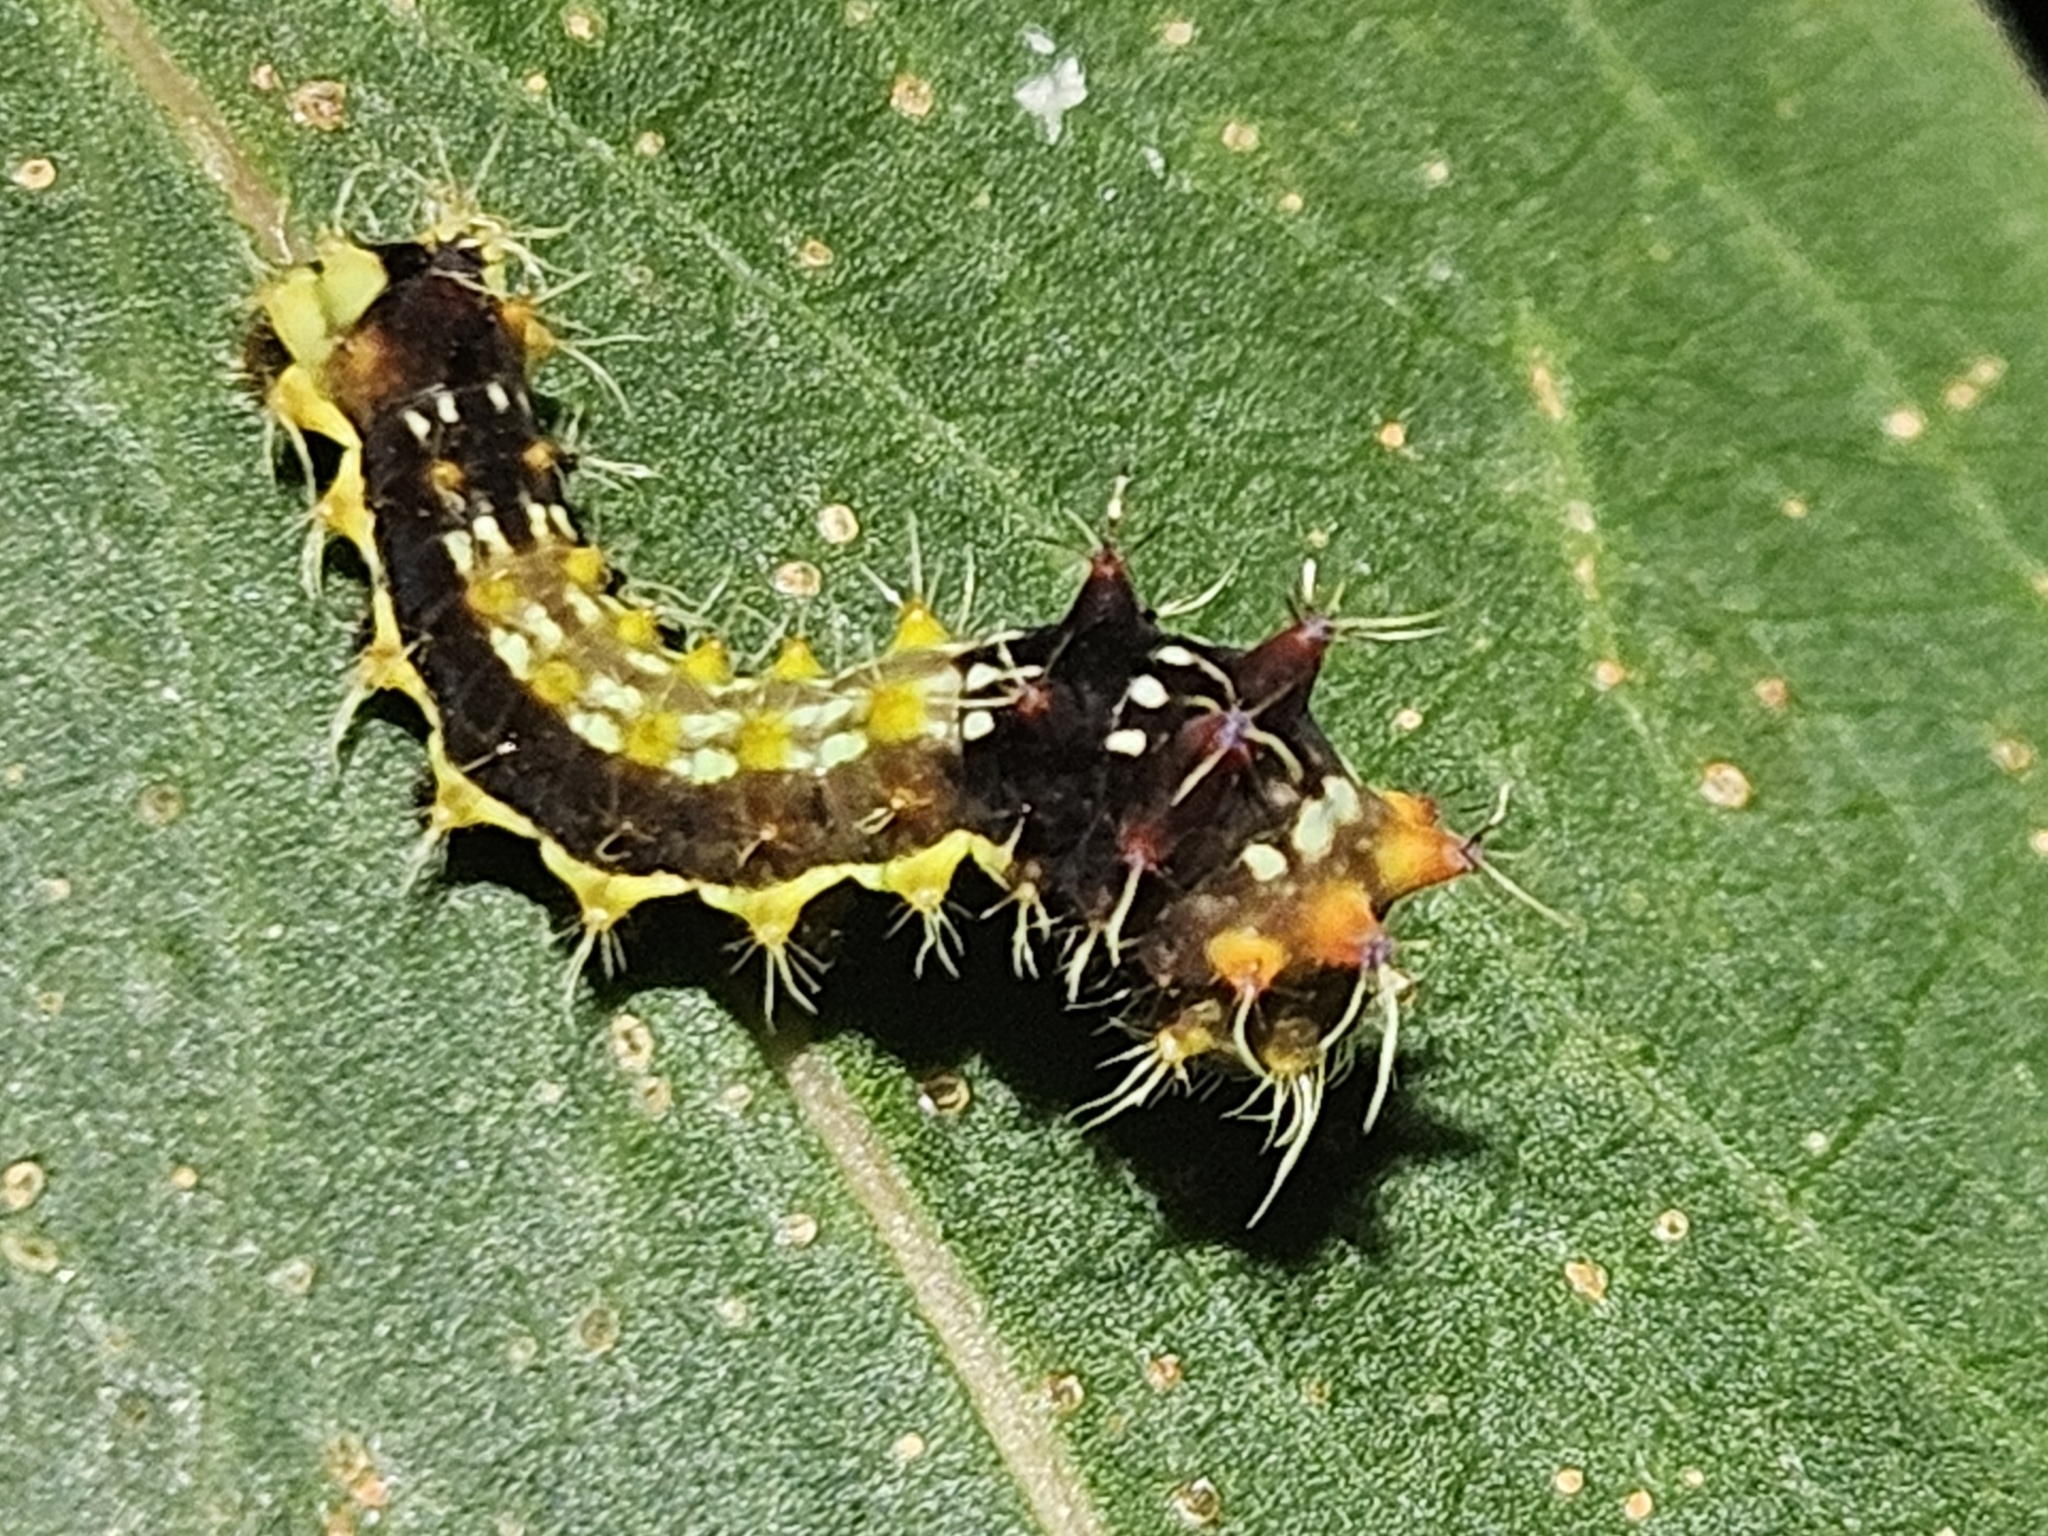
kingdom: Animalia
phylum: Arthropoda
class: Insecta
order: Lepidoptera
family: Saturniidae
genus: Opodiphthera
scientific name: Opodiphthera
